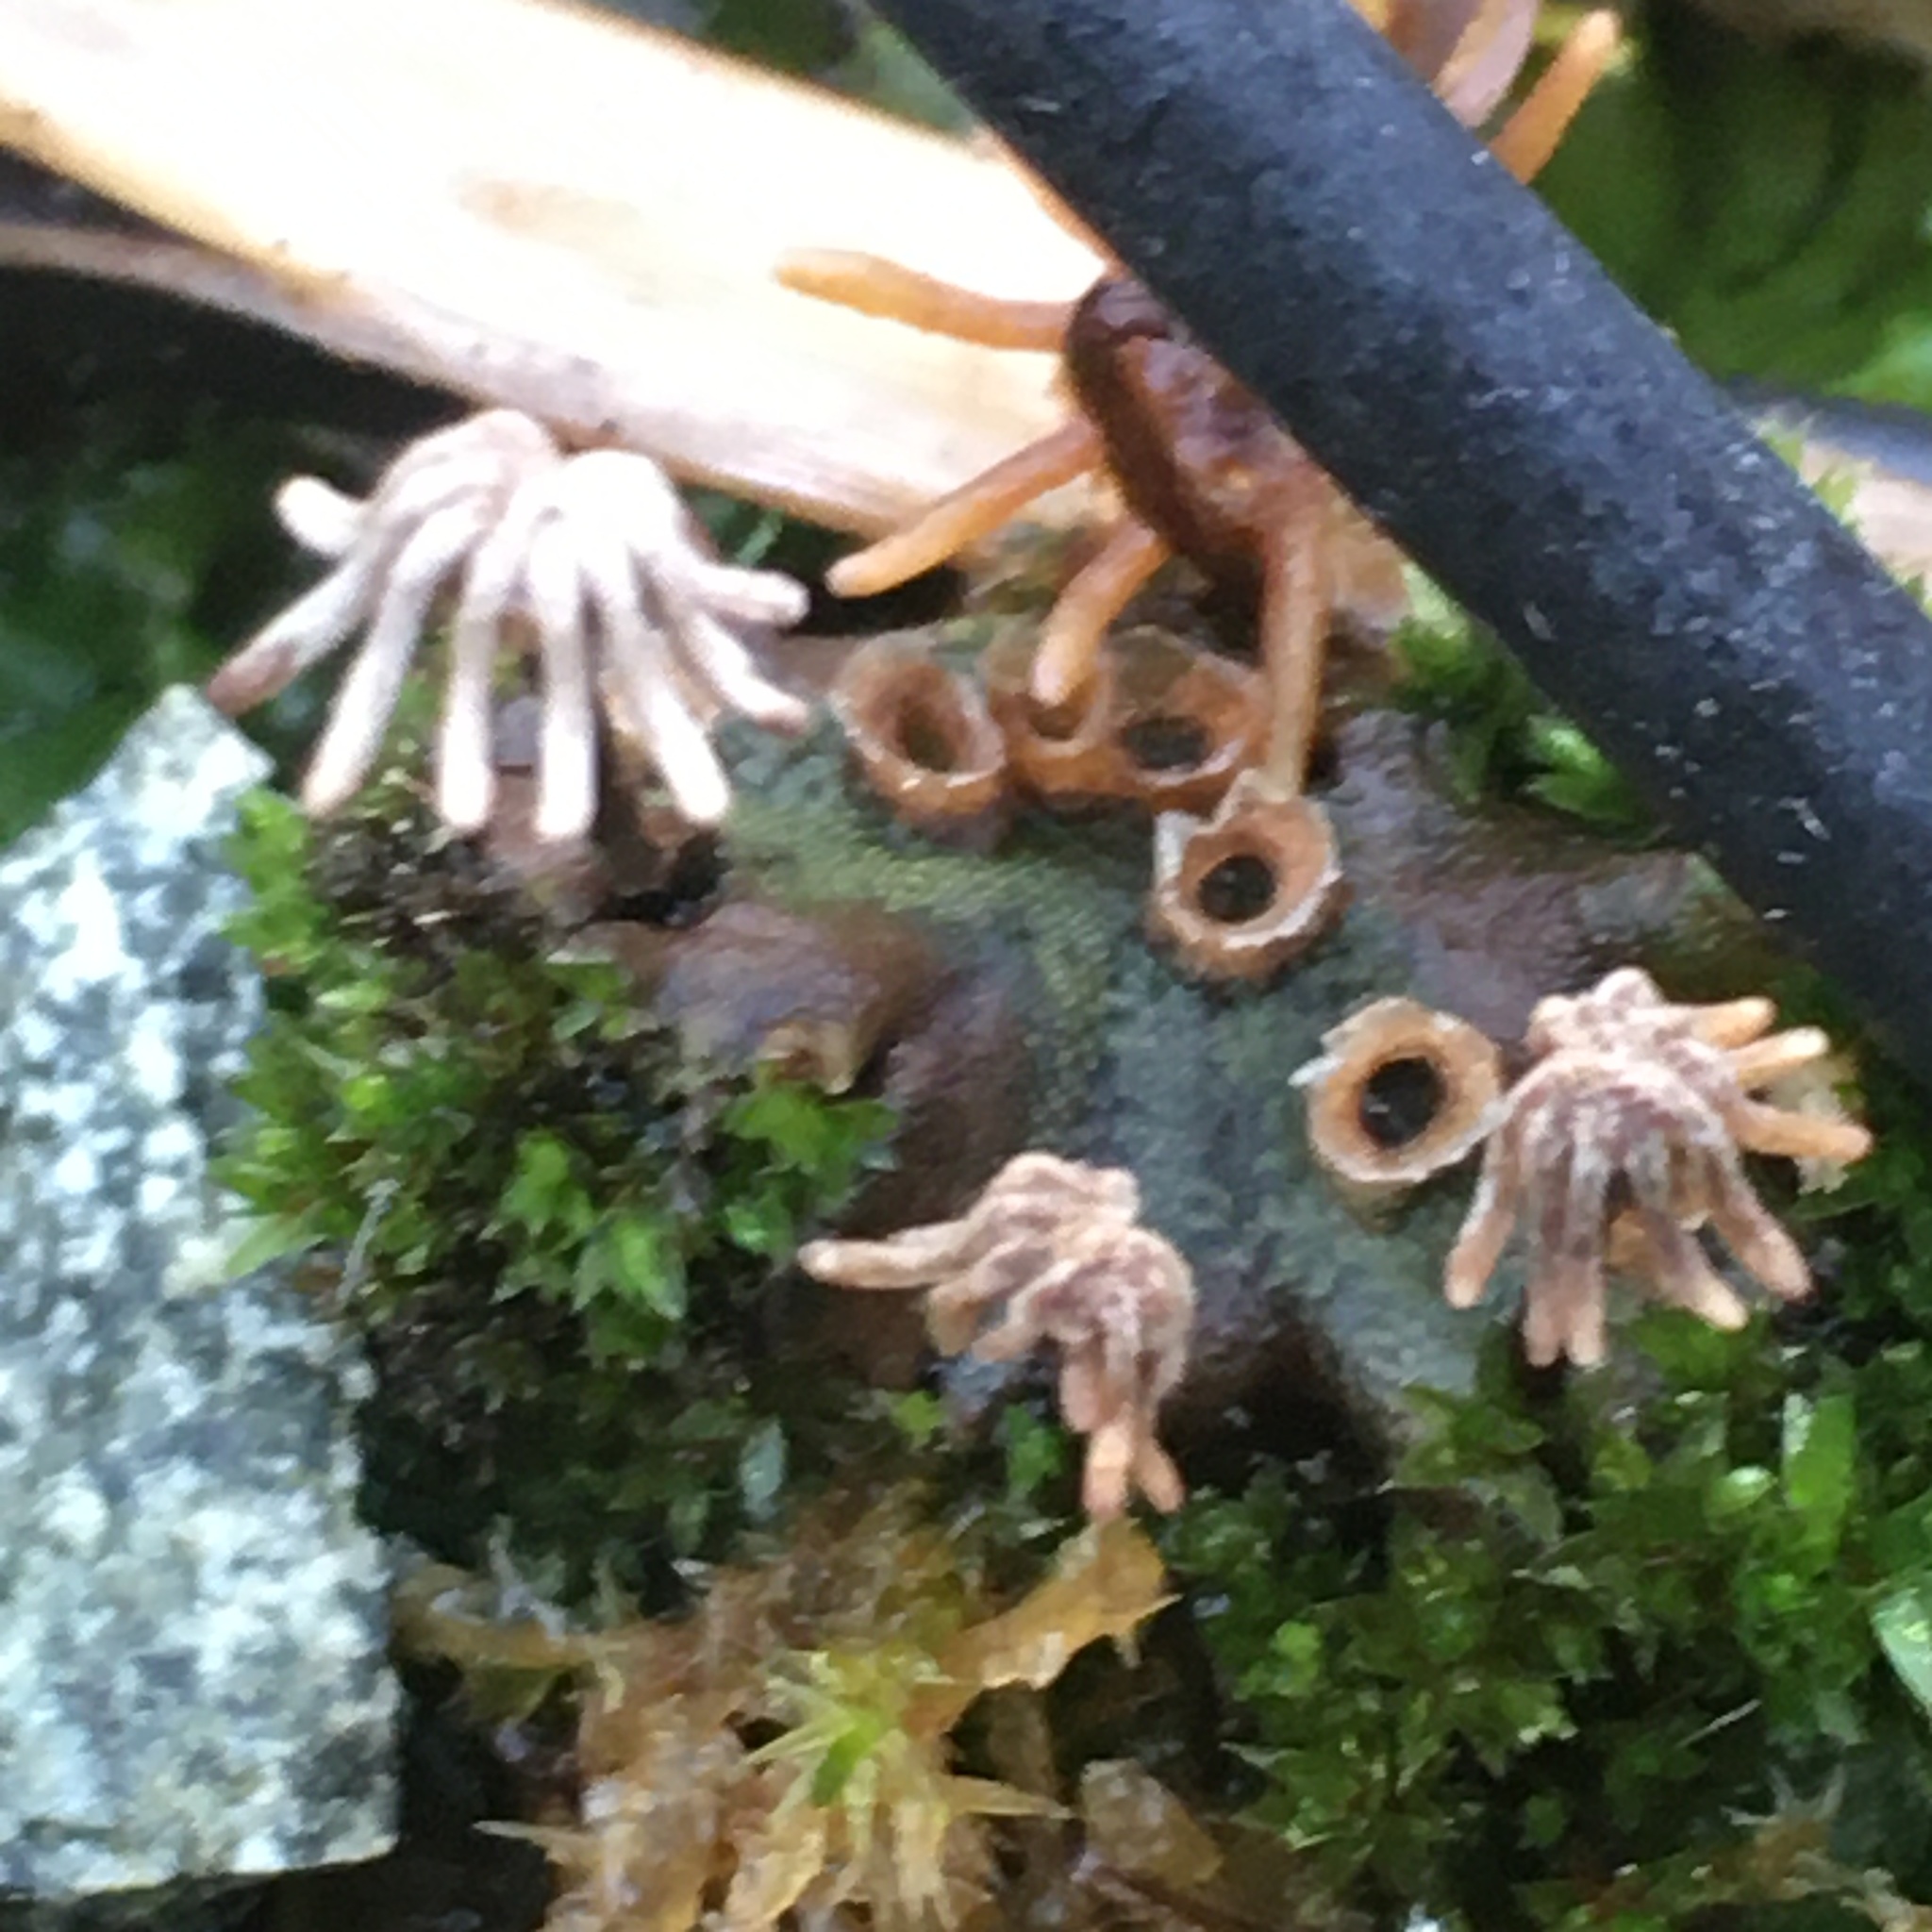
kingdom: Plantae
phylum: Marchantiophyta
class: Marchantiopsida
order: Marchantiales
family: Marchantiaceae
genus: Marchantia
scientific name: Marchantia polymorpha
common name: Common liverwort
